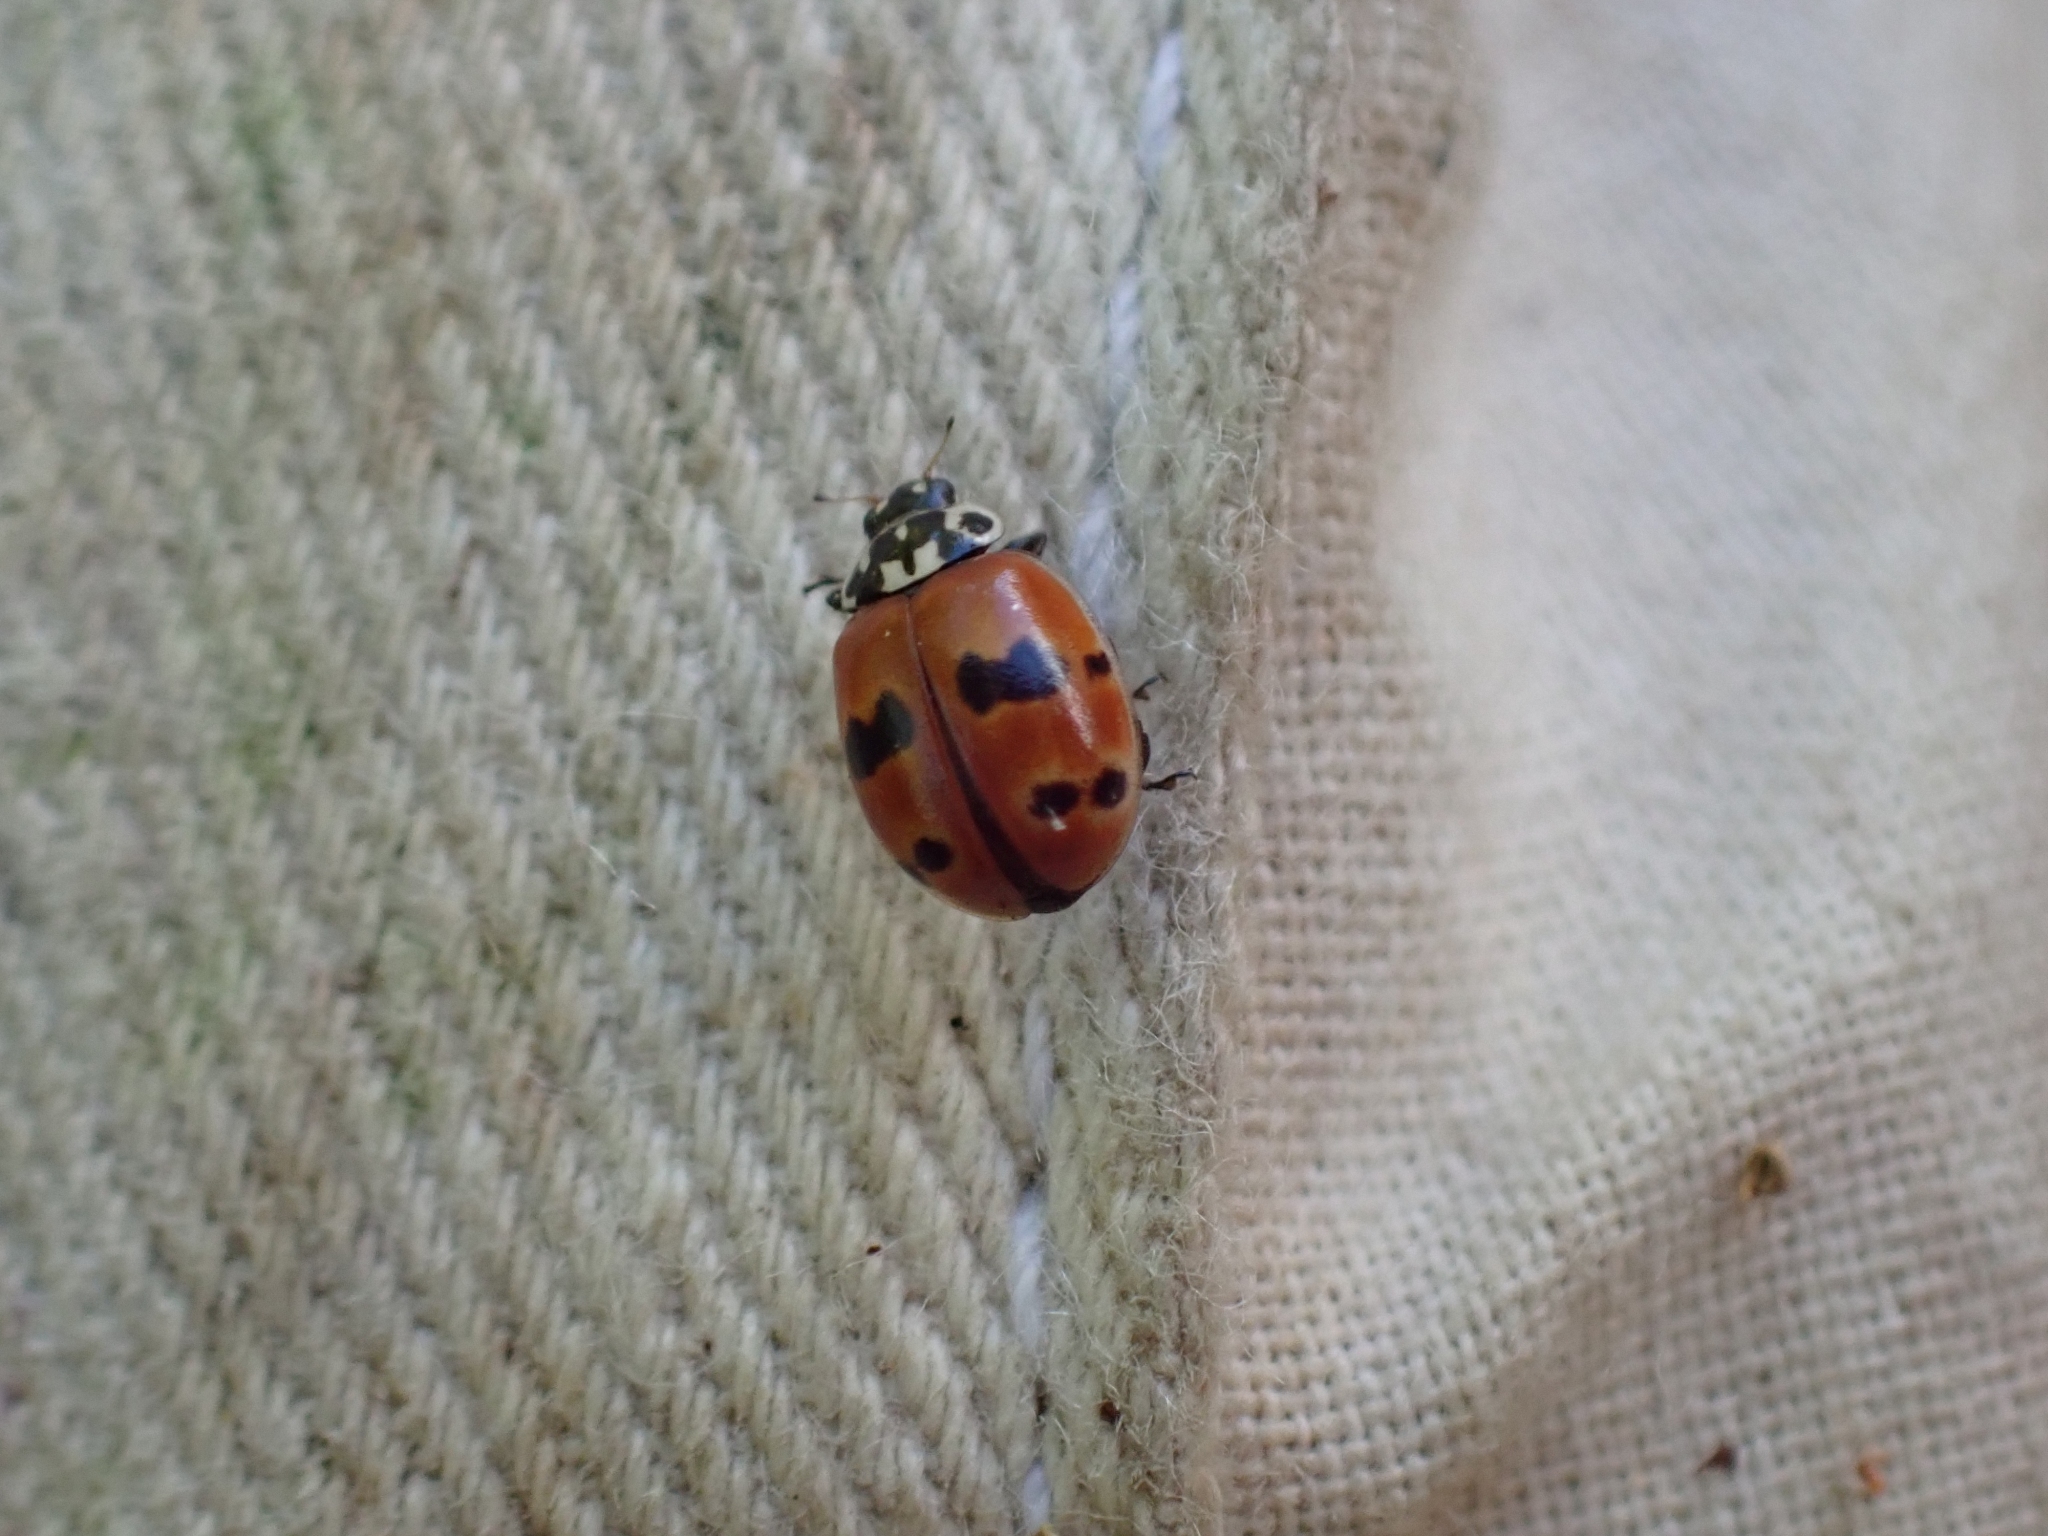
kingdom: Animalia
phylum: Arthropoda
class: Insecta
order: Coleoptera
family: Coccinellidae
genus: Adalia
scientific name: Adalia bipunctata
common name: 2-spot ladybird
